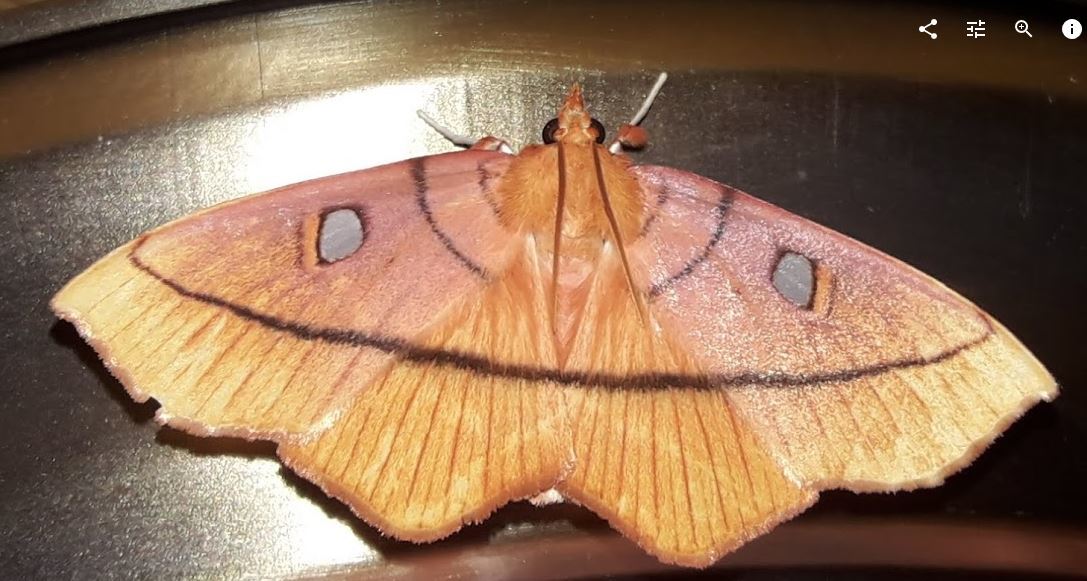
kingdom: Animalia
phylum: Arthropoda
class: Insecta
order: Lepidoptera
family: Crambidae
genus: Midila
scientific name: Midila daphne
